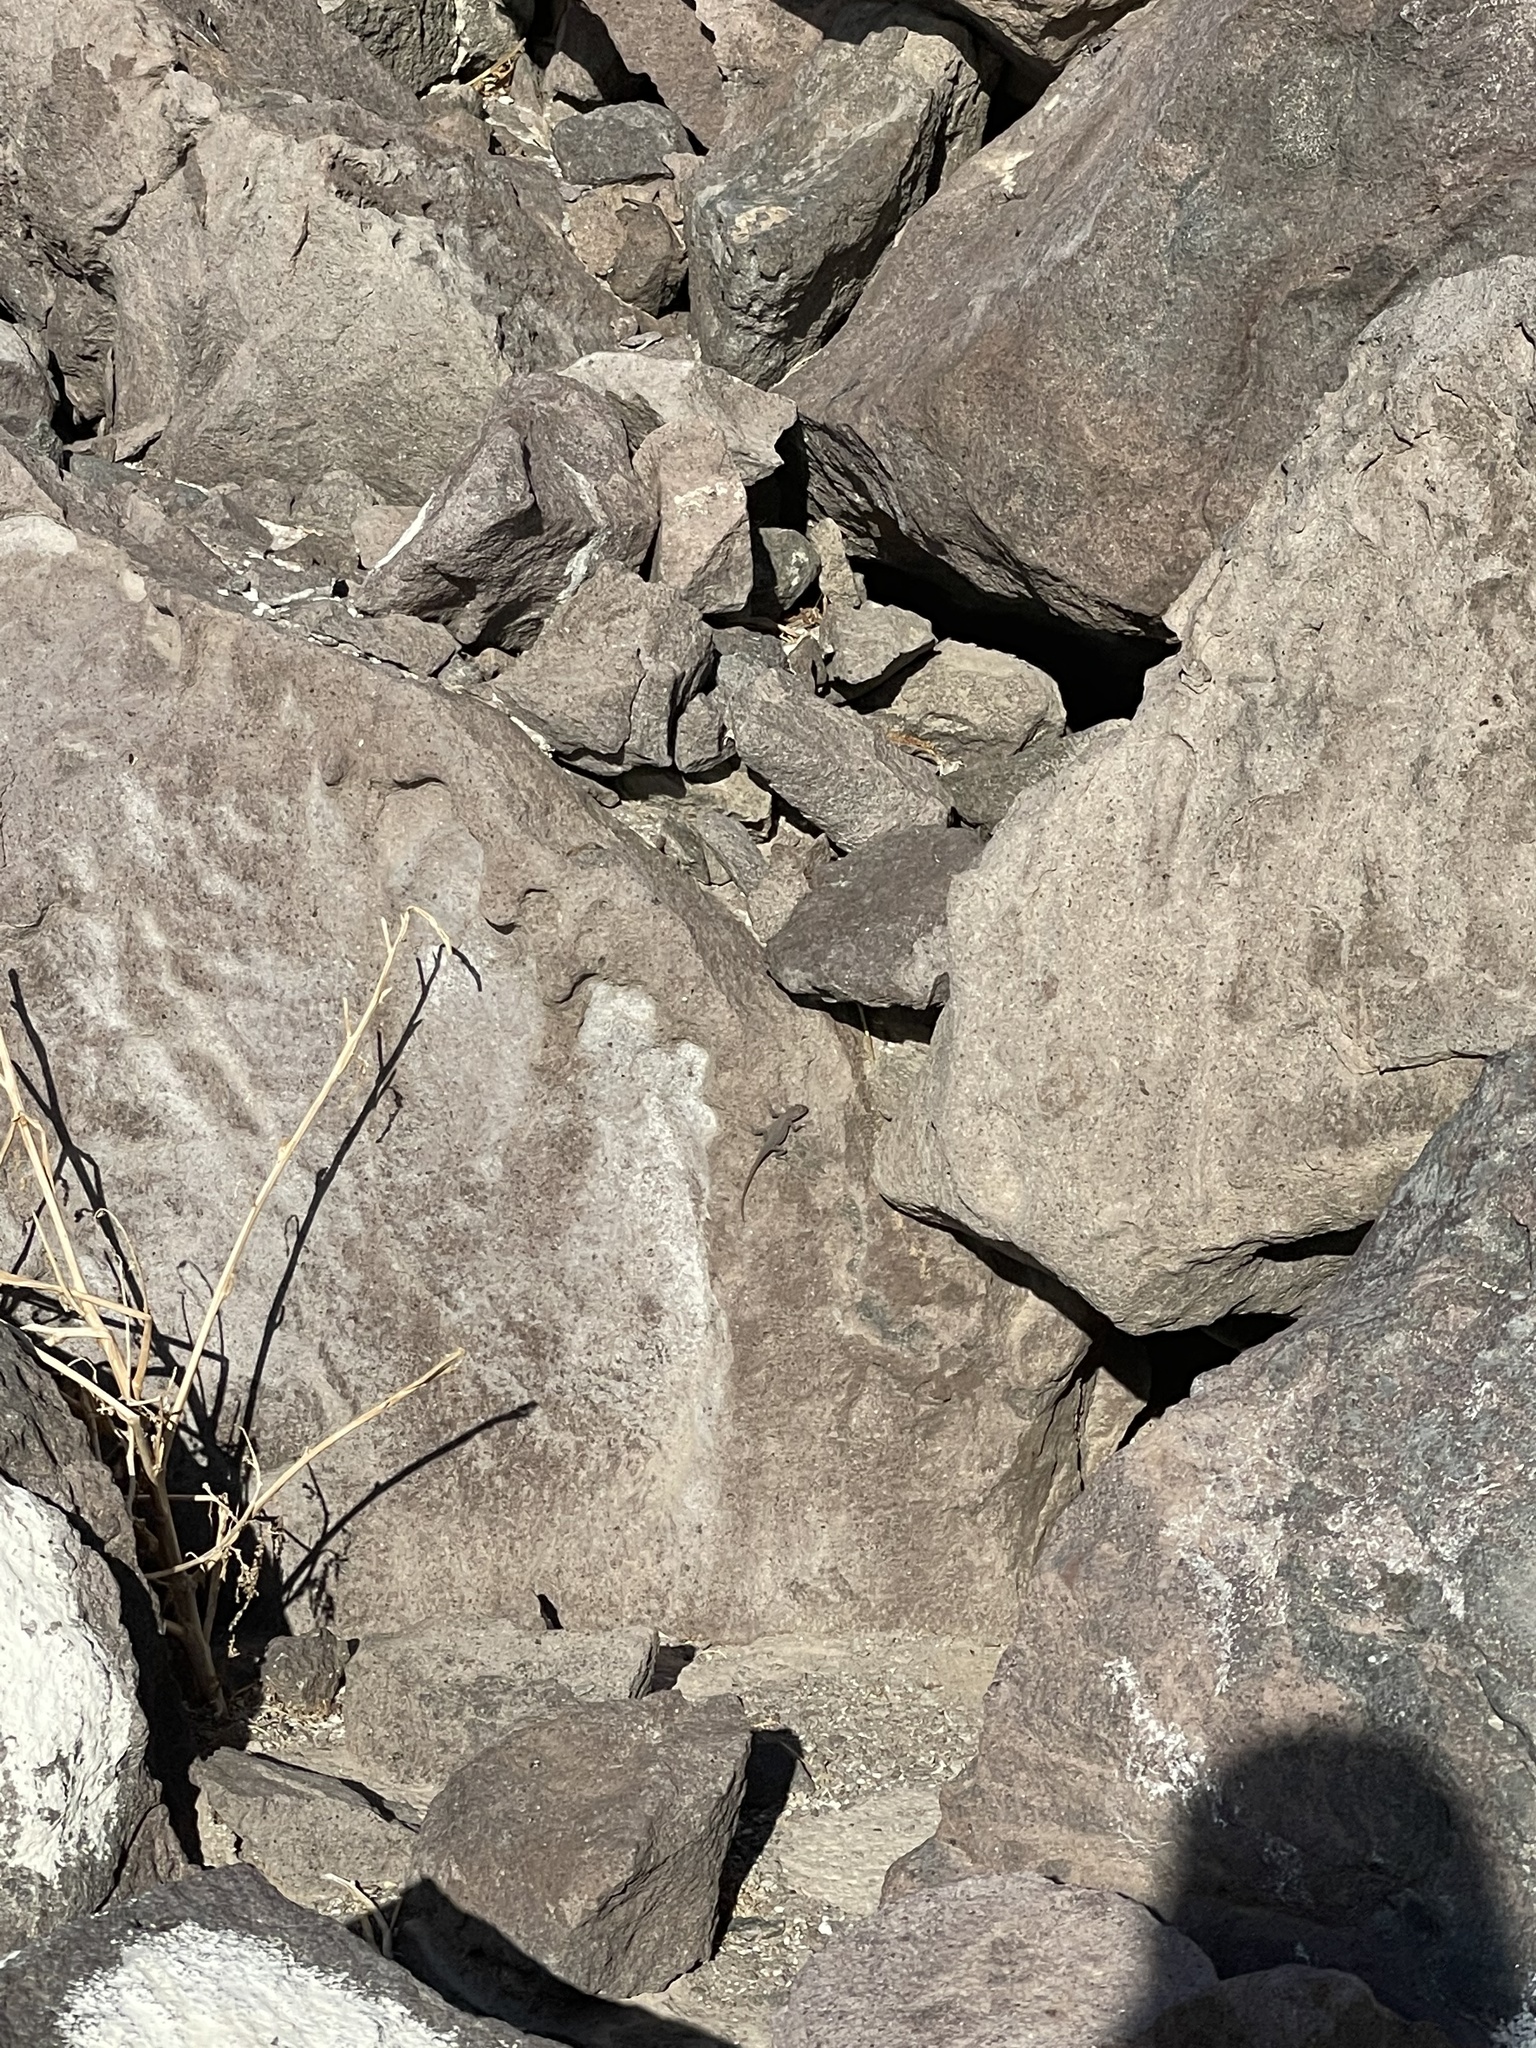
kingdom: Animalia
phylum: Chordata
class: Squamata
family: Phrynosomatidae
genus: Uta
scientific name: Uta lowei
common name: Dead side-blotched lizard
